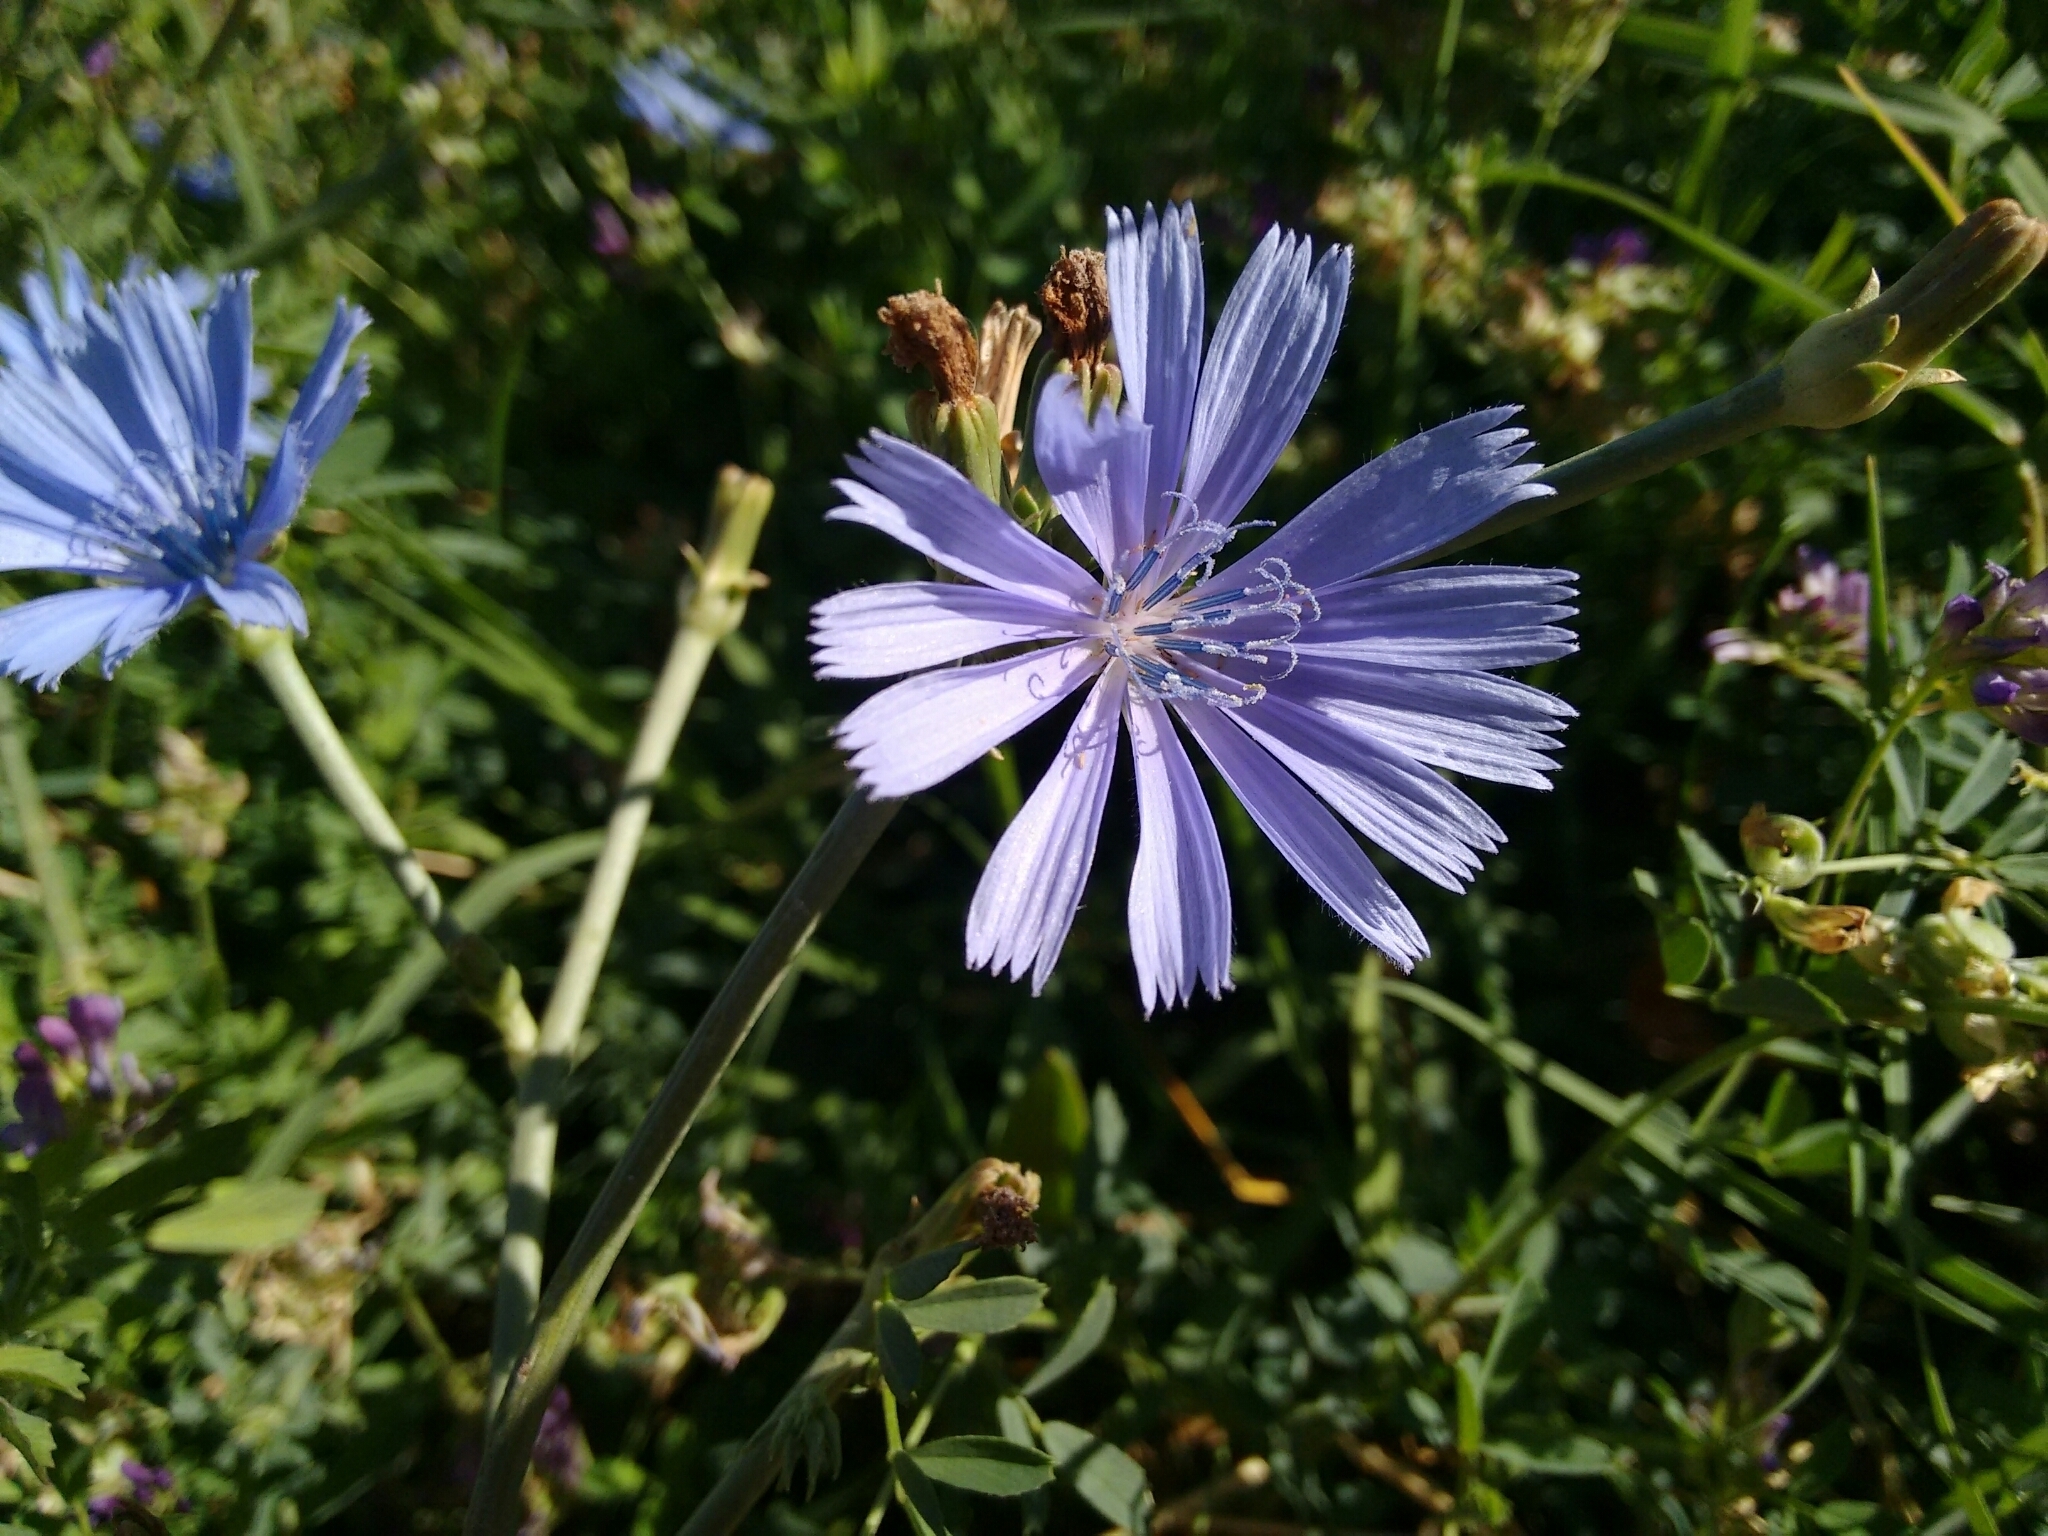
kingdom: Plantae
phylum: Tracheophyta
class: Magnoliopsida
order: Asterales
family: Asteraceae
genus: Cichorium
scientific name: Cichorium intybus
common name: Chicory
